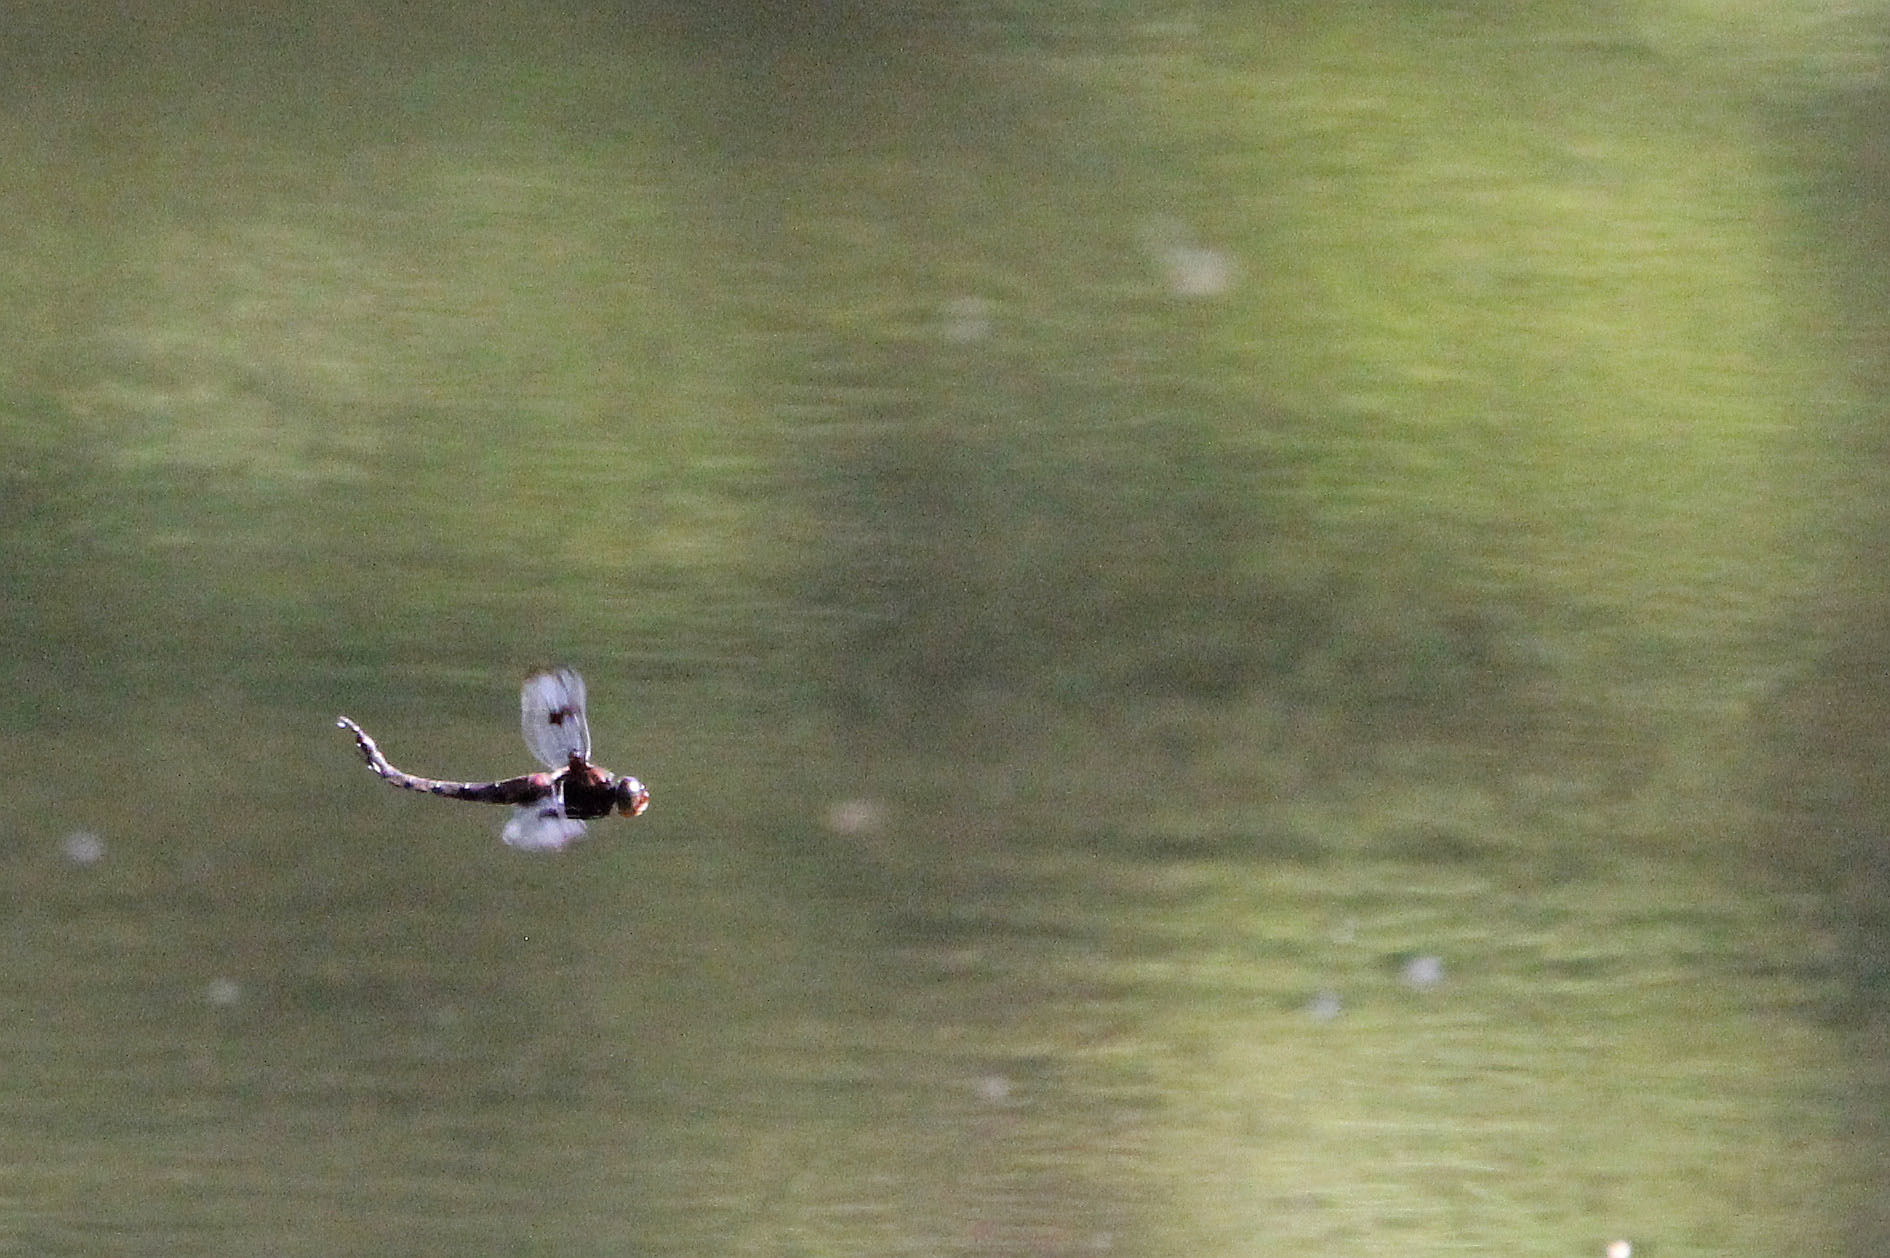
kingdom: Animalia
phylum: Arthropoda
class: Insecta
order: Odonata
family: Corduliidae
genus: Epitheca
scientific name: Epitheca princeps
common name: Prince baskettail
